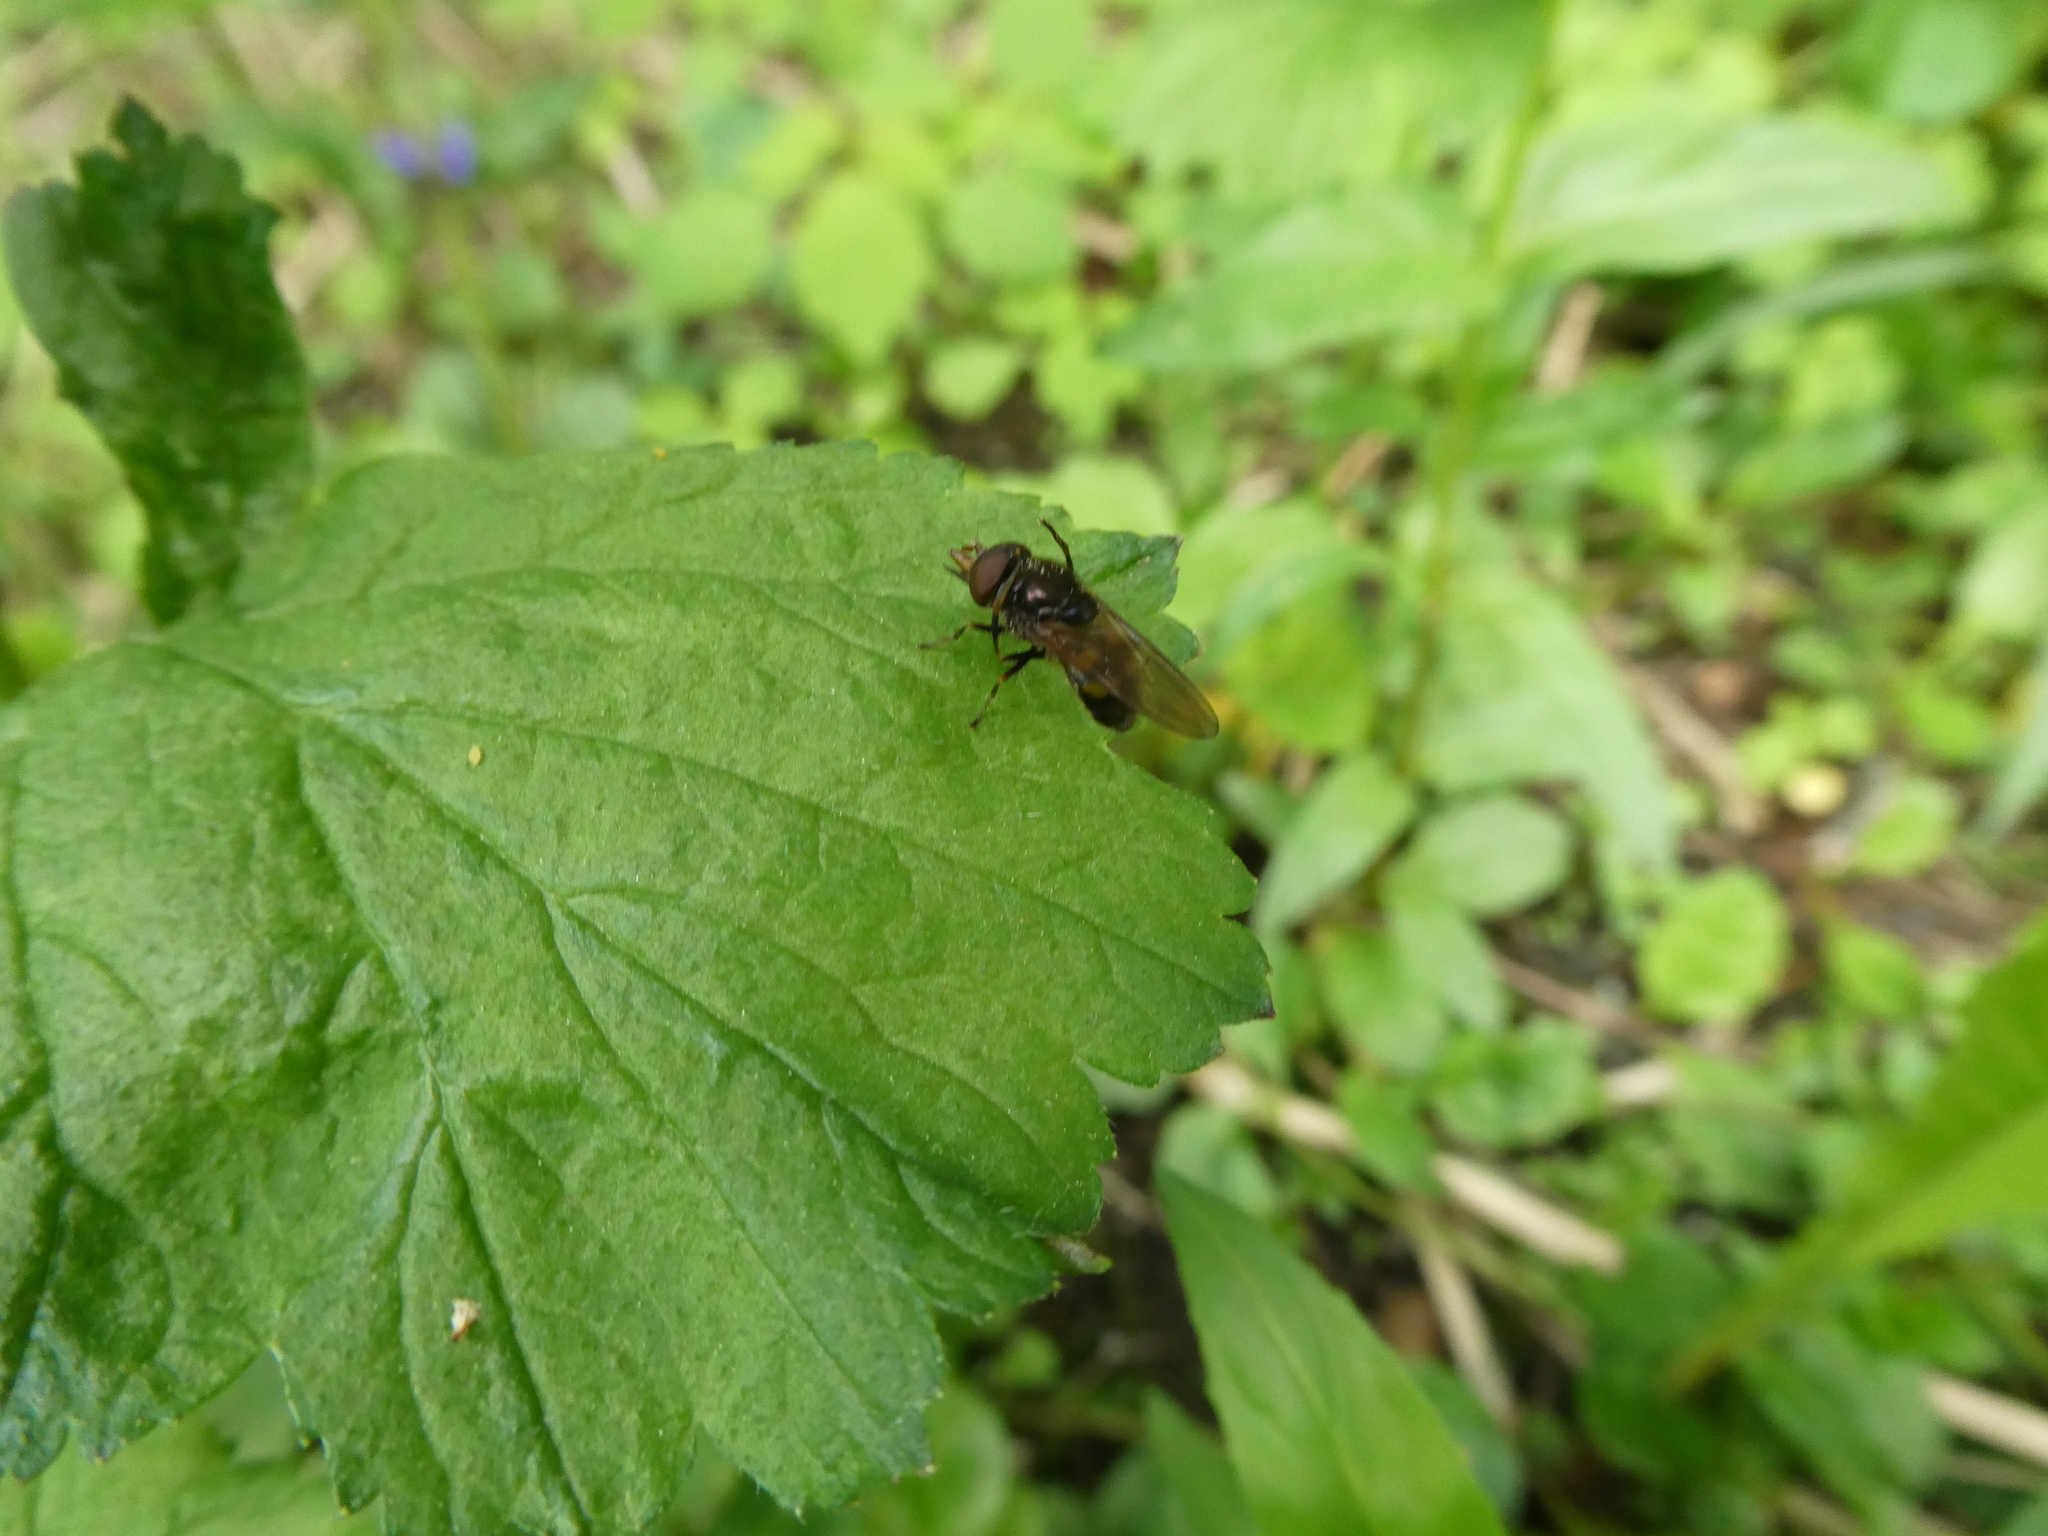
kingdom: Animalia
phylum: Arthropoda
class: Insecta
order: Diptera
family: Syrphidae
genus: Rhingia
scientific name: Rhingia nasica
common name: American snout fly
